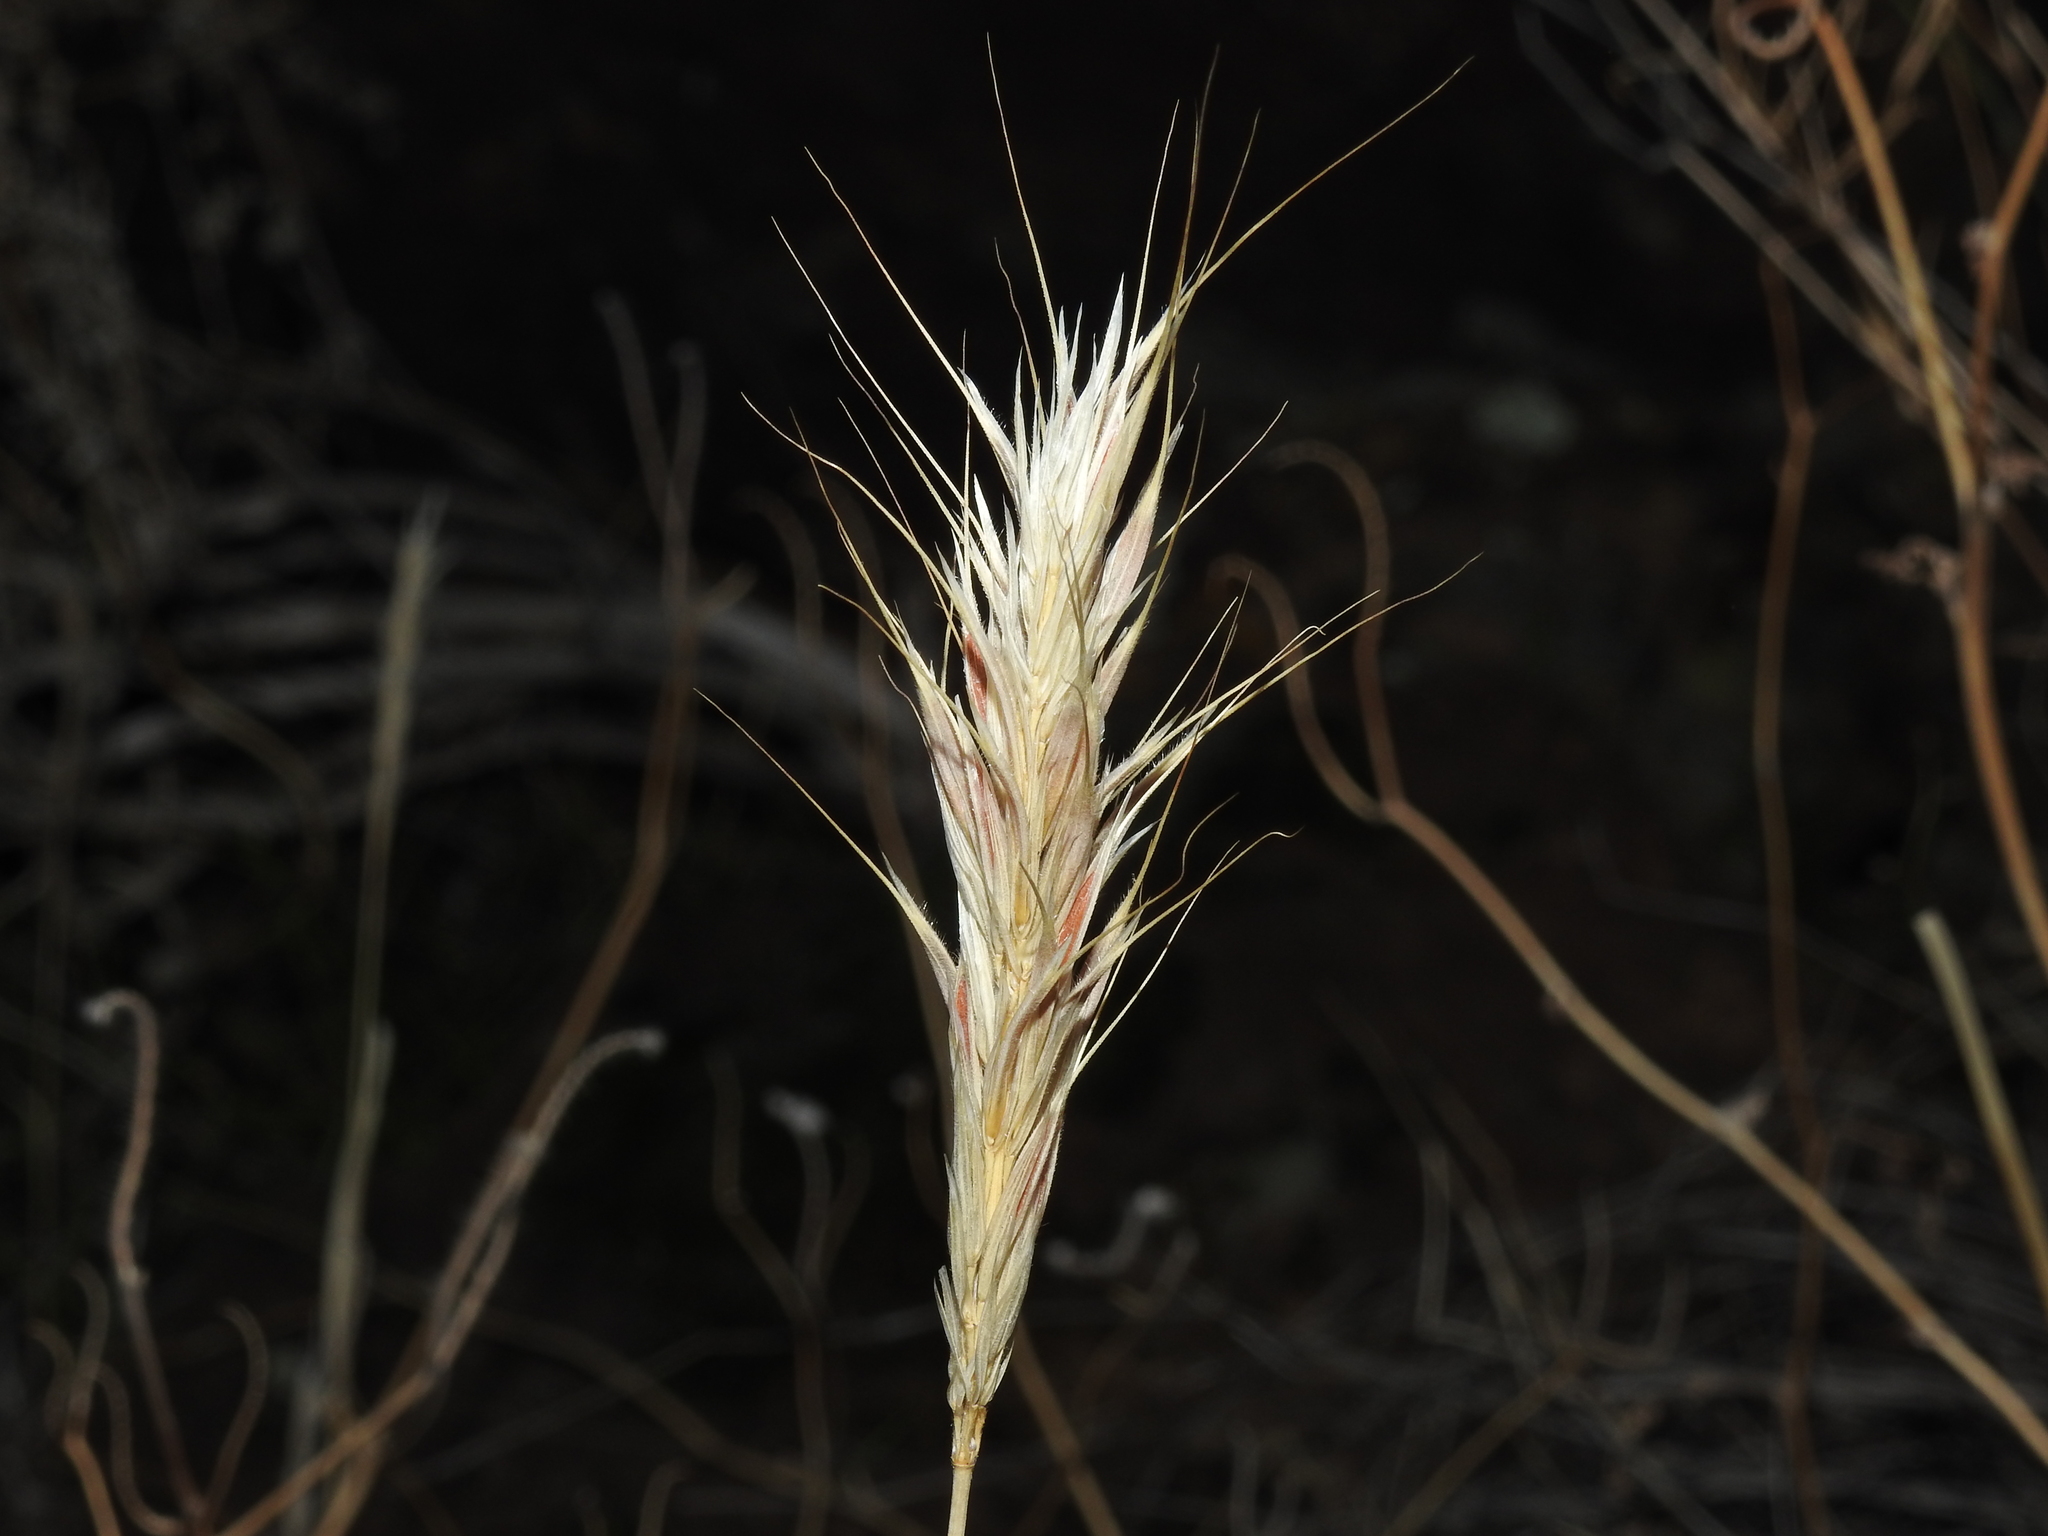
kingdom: Plantae
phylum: Tracheophyta
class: Liliopsida
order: Poales
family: Poaceae
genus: Bromus
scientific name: Bromus rubens
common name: Red brome
